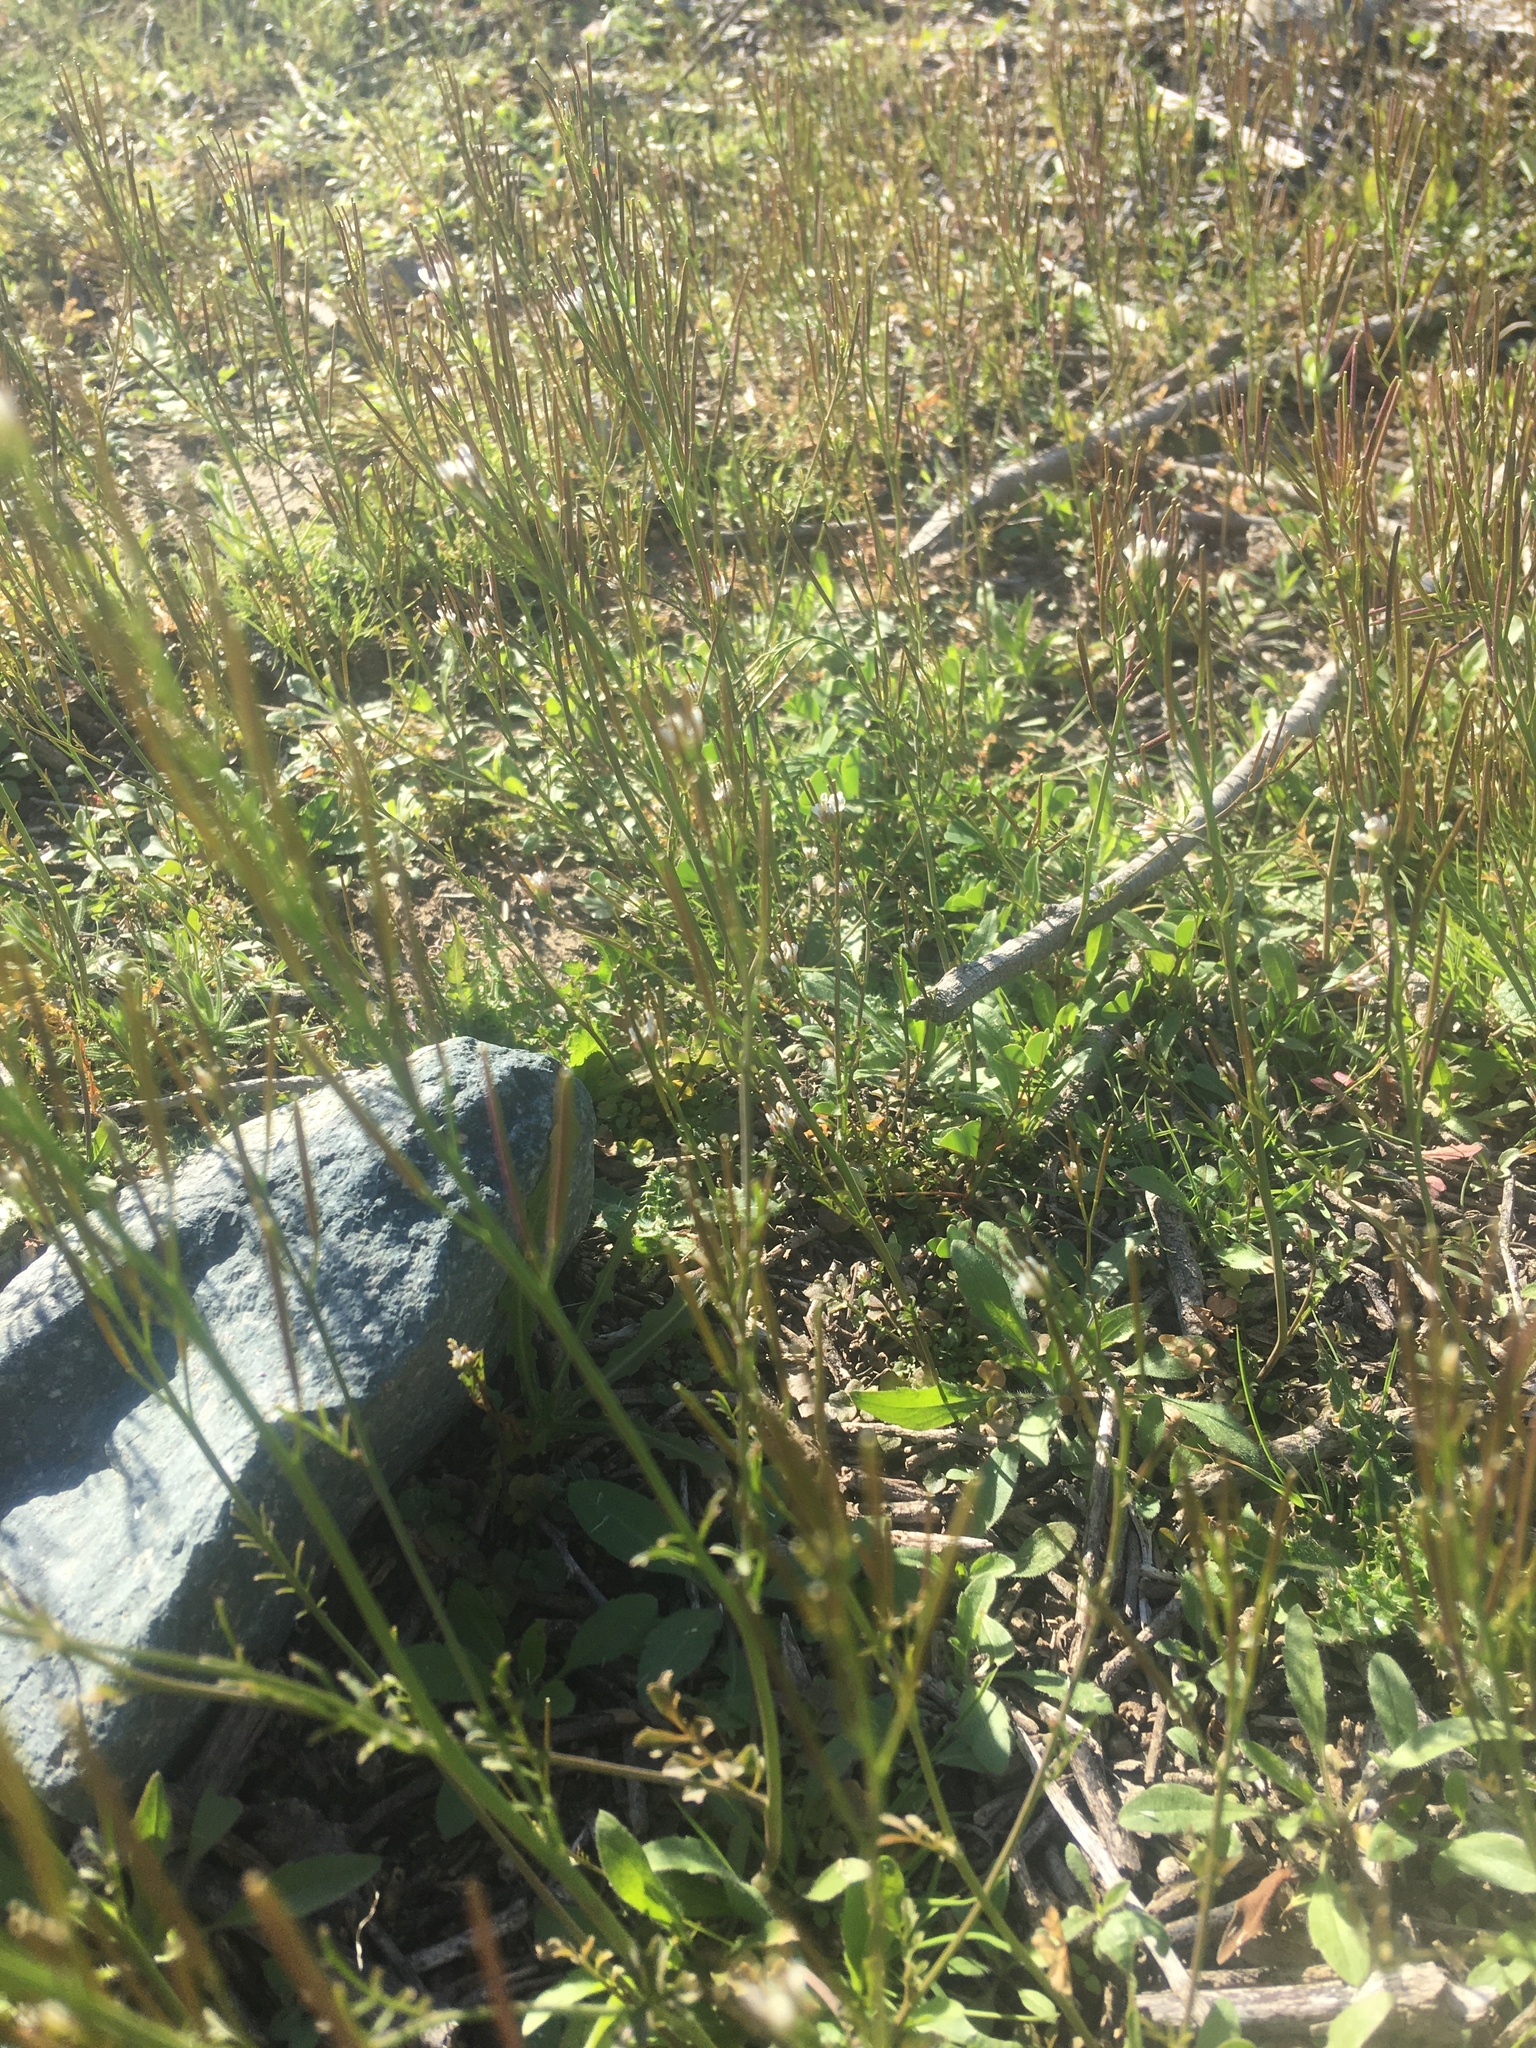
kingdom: Plantae
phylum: Tracheophyta
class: Magnoliopsida
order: Brassicales
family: Brassicaceae
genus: Cardamine
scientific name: Cardamine hirsuta
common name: Hairy bittercress
